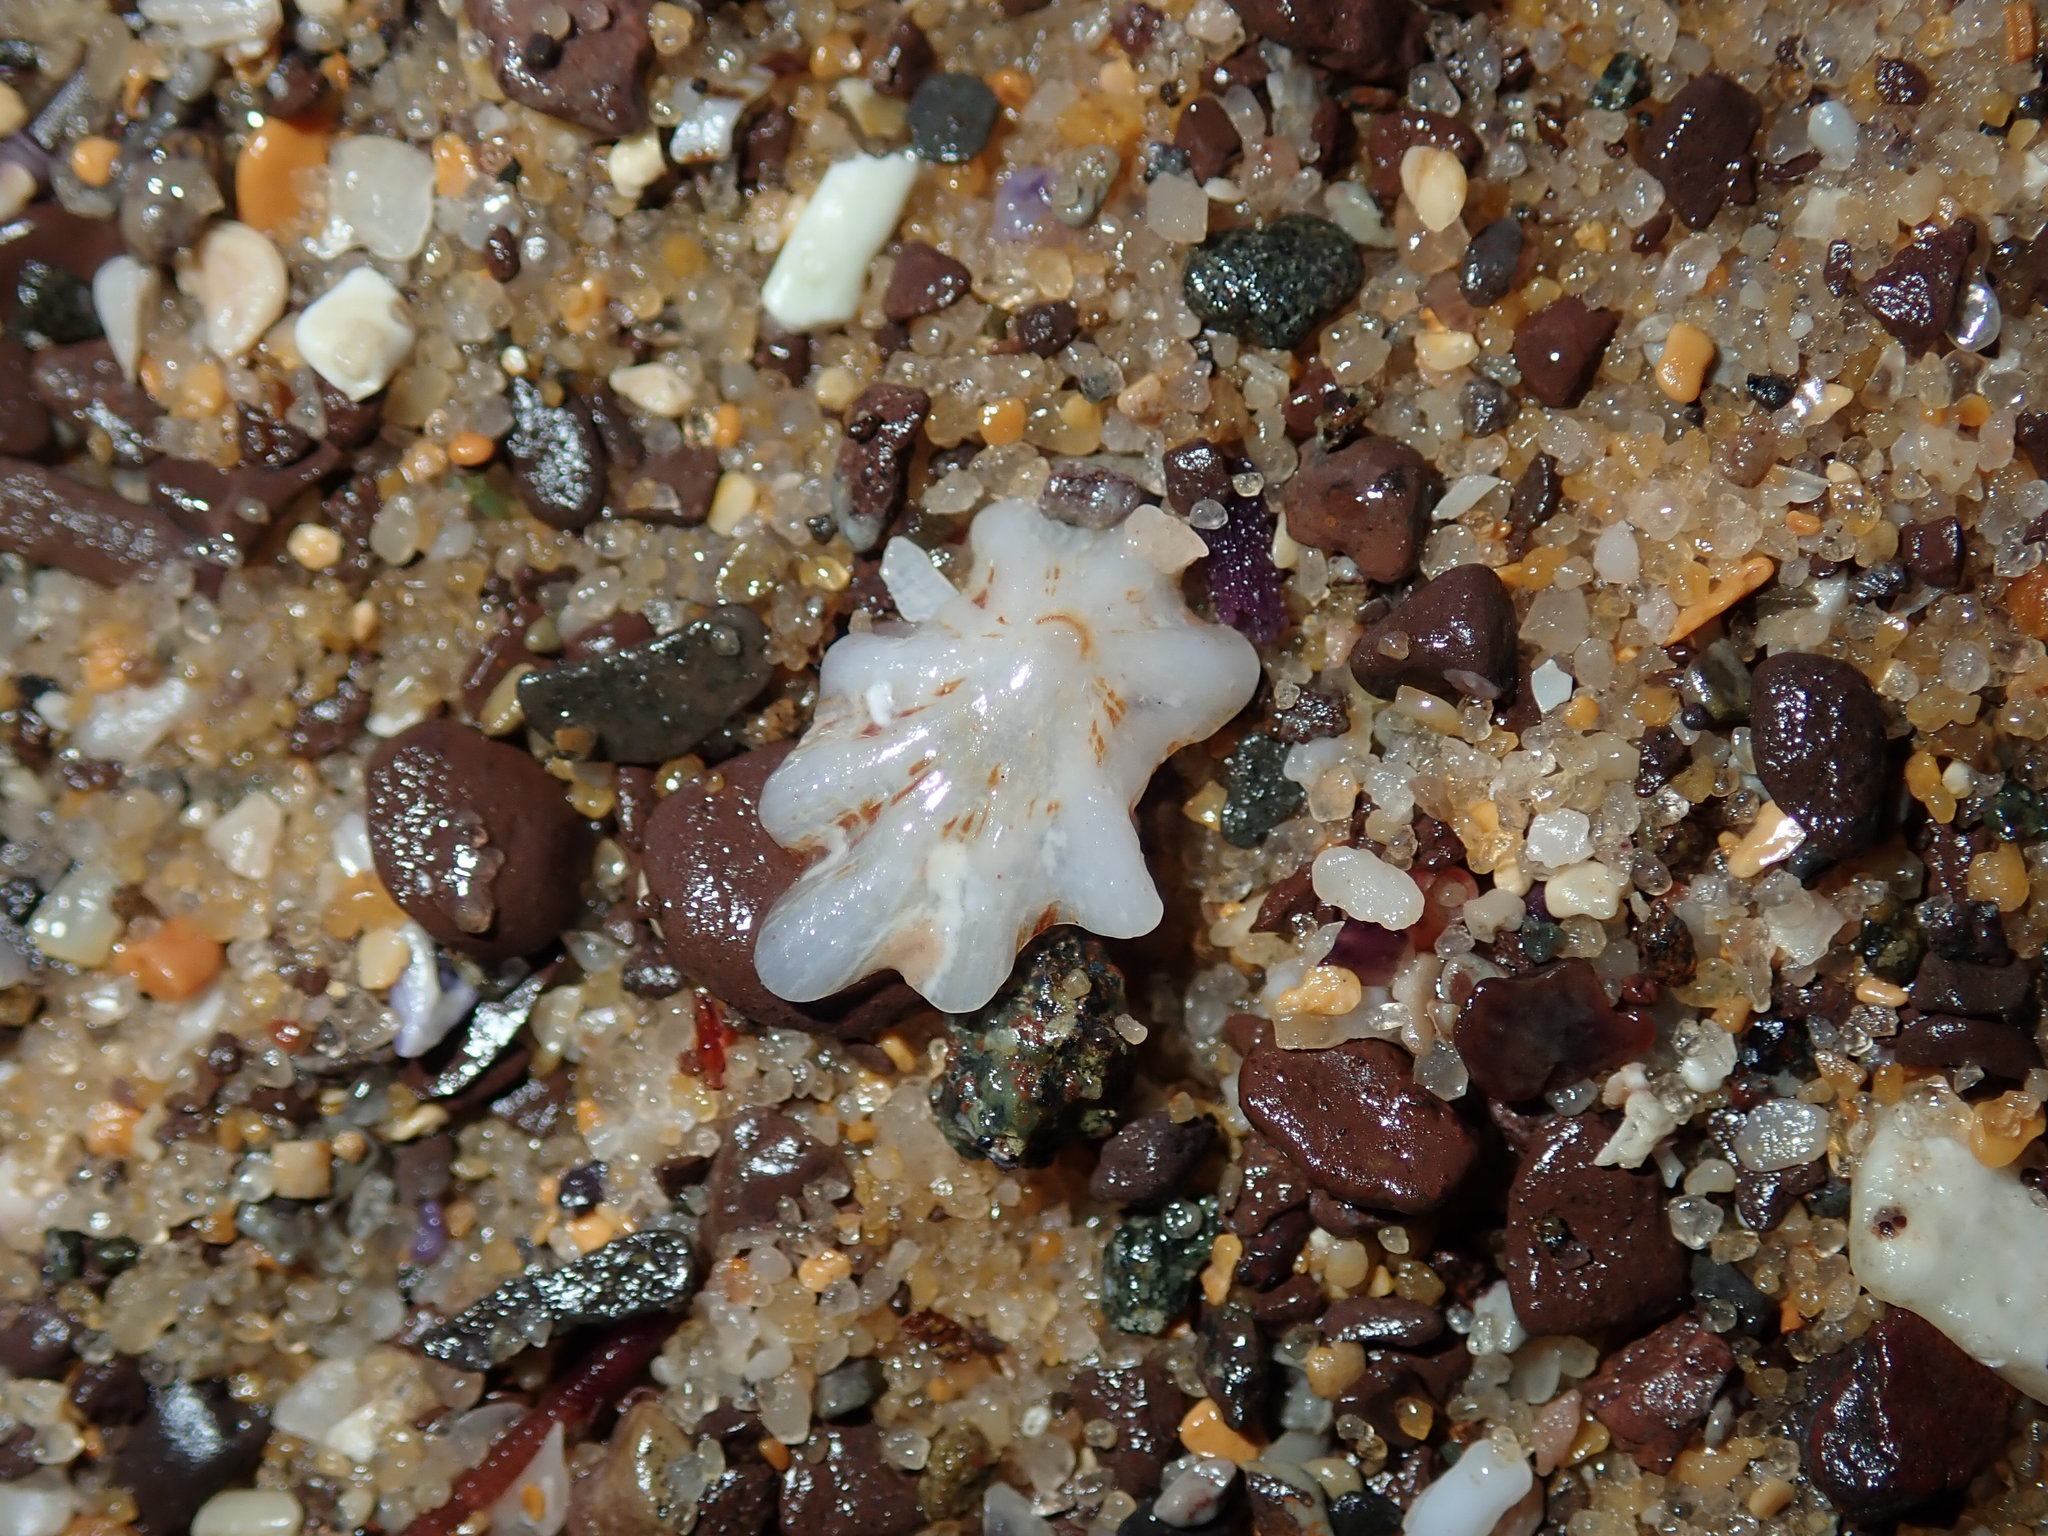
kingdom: Animalia
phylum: Mollusca
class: Gastropoda
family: Patellidae
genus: Scutellastra
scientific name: Scutellastra chapmani
